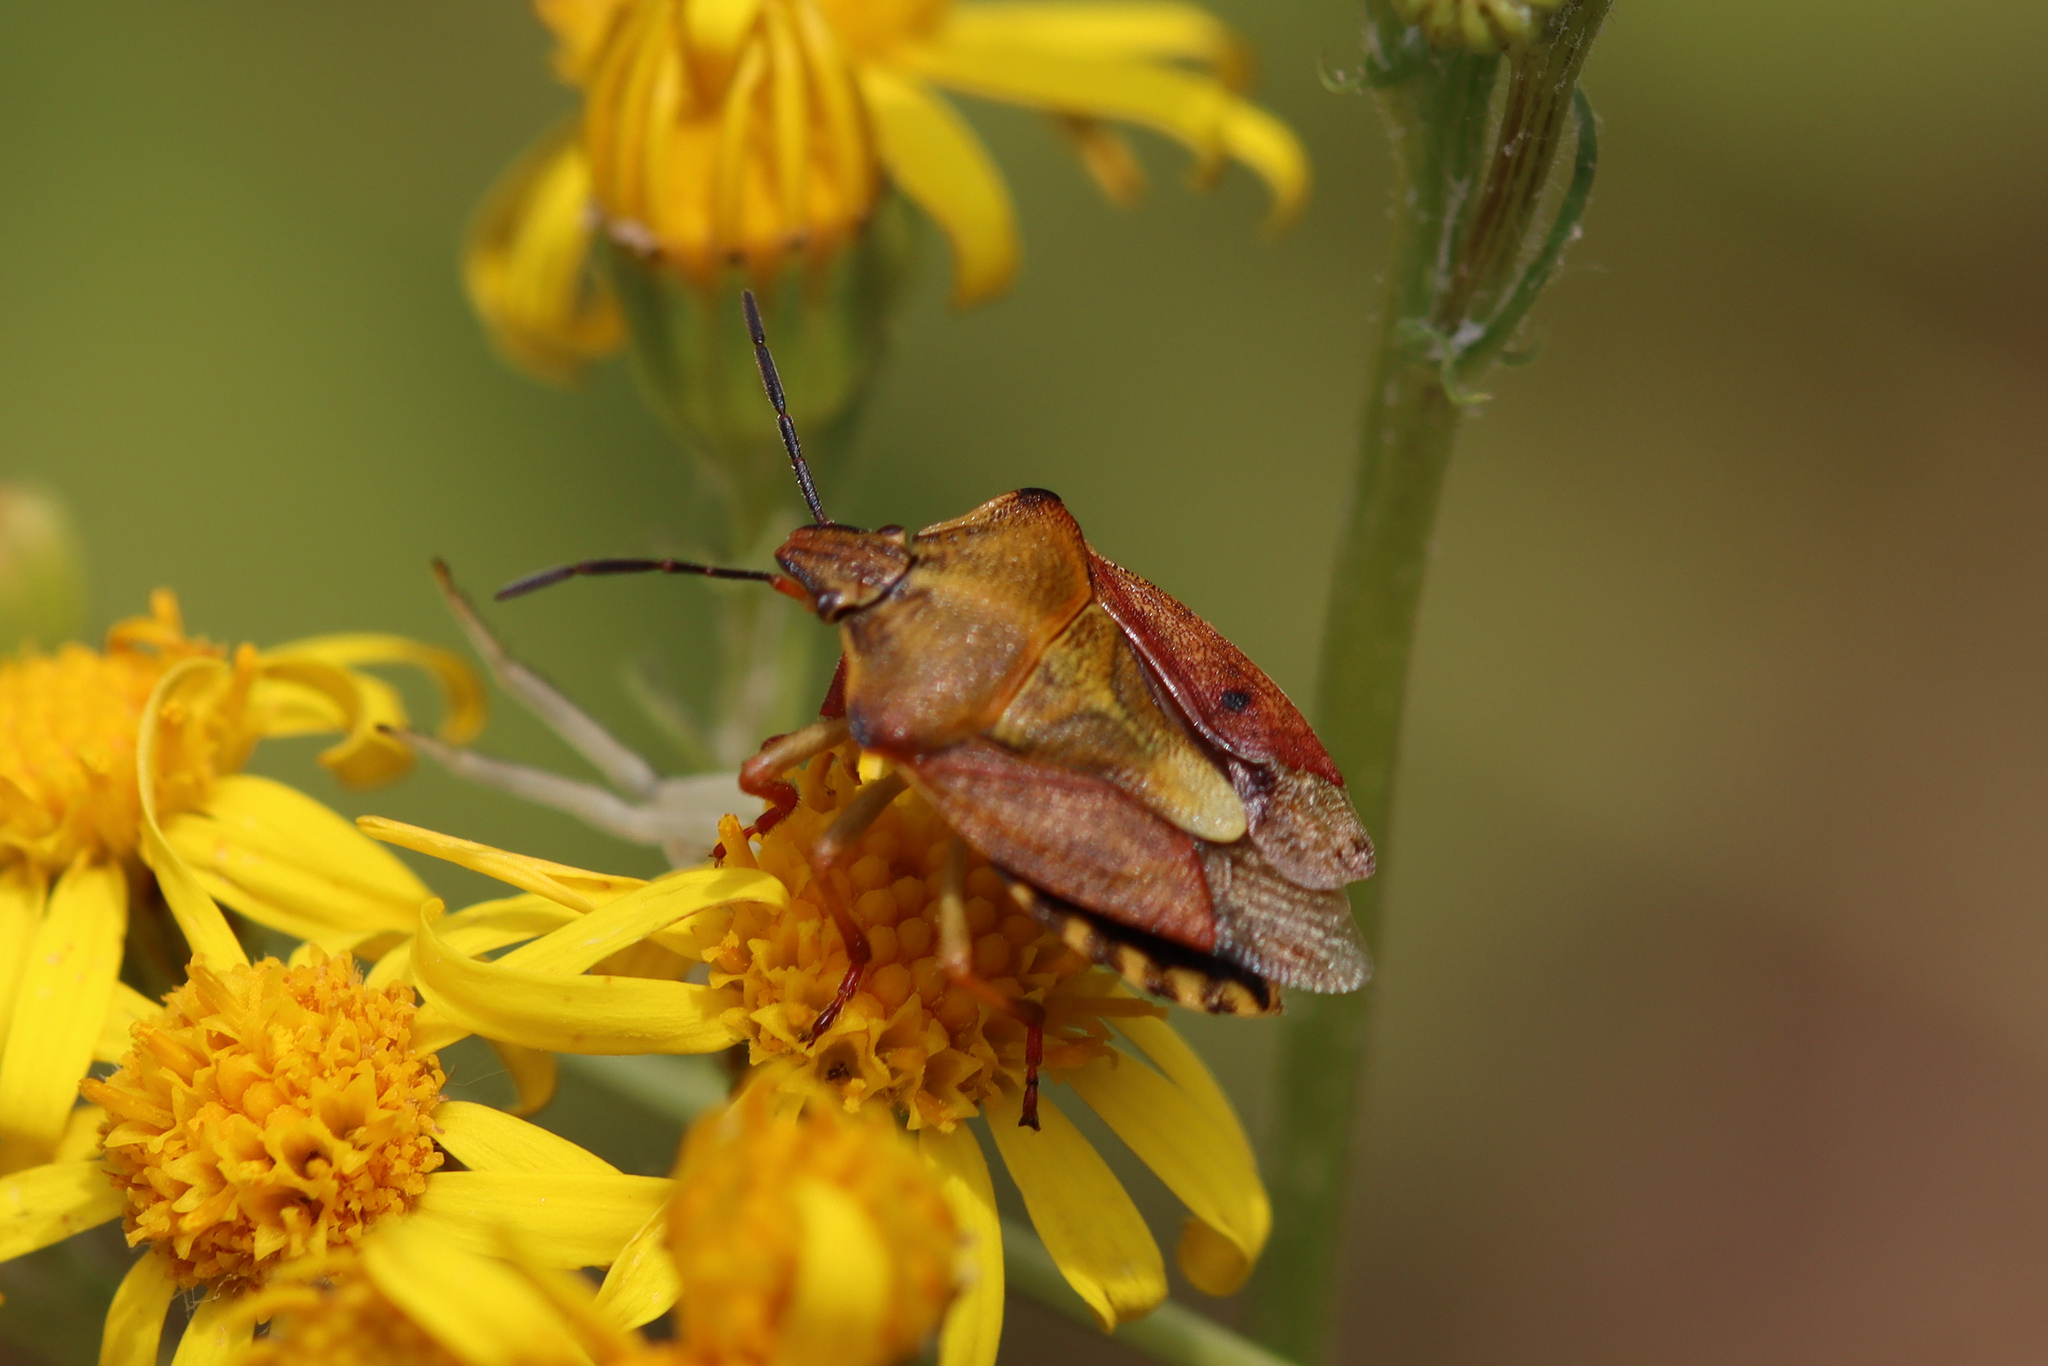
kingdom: Animalia
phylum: Arthropoda
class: Insecta
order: Hemiptera
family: Pentatomidae
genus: Carpocoris
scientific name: Carpocoris purpureipennis
